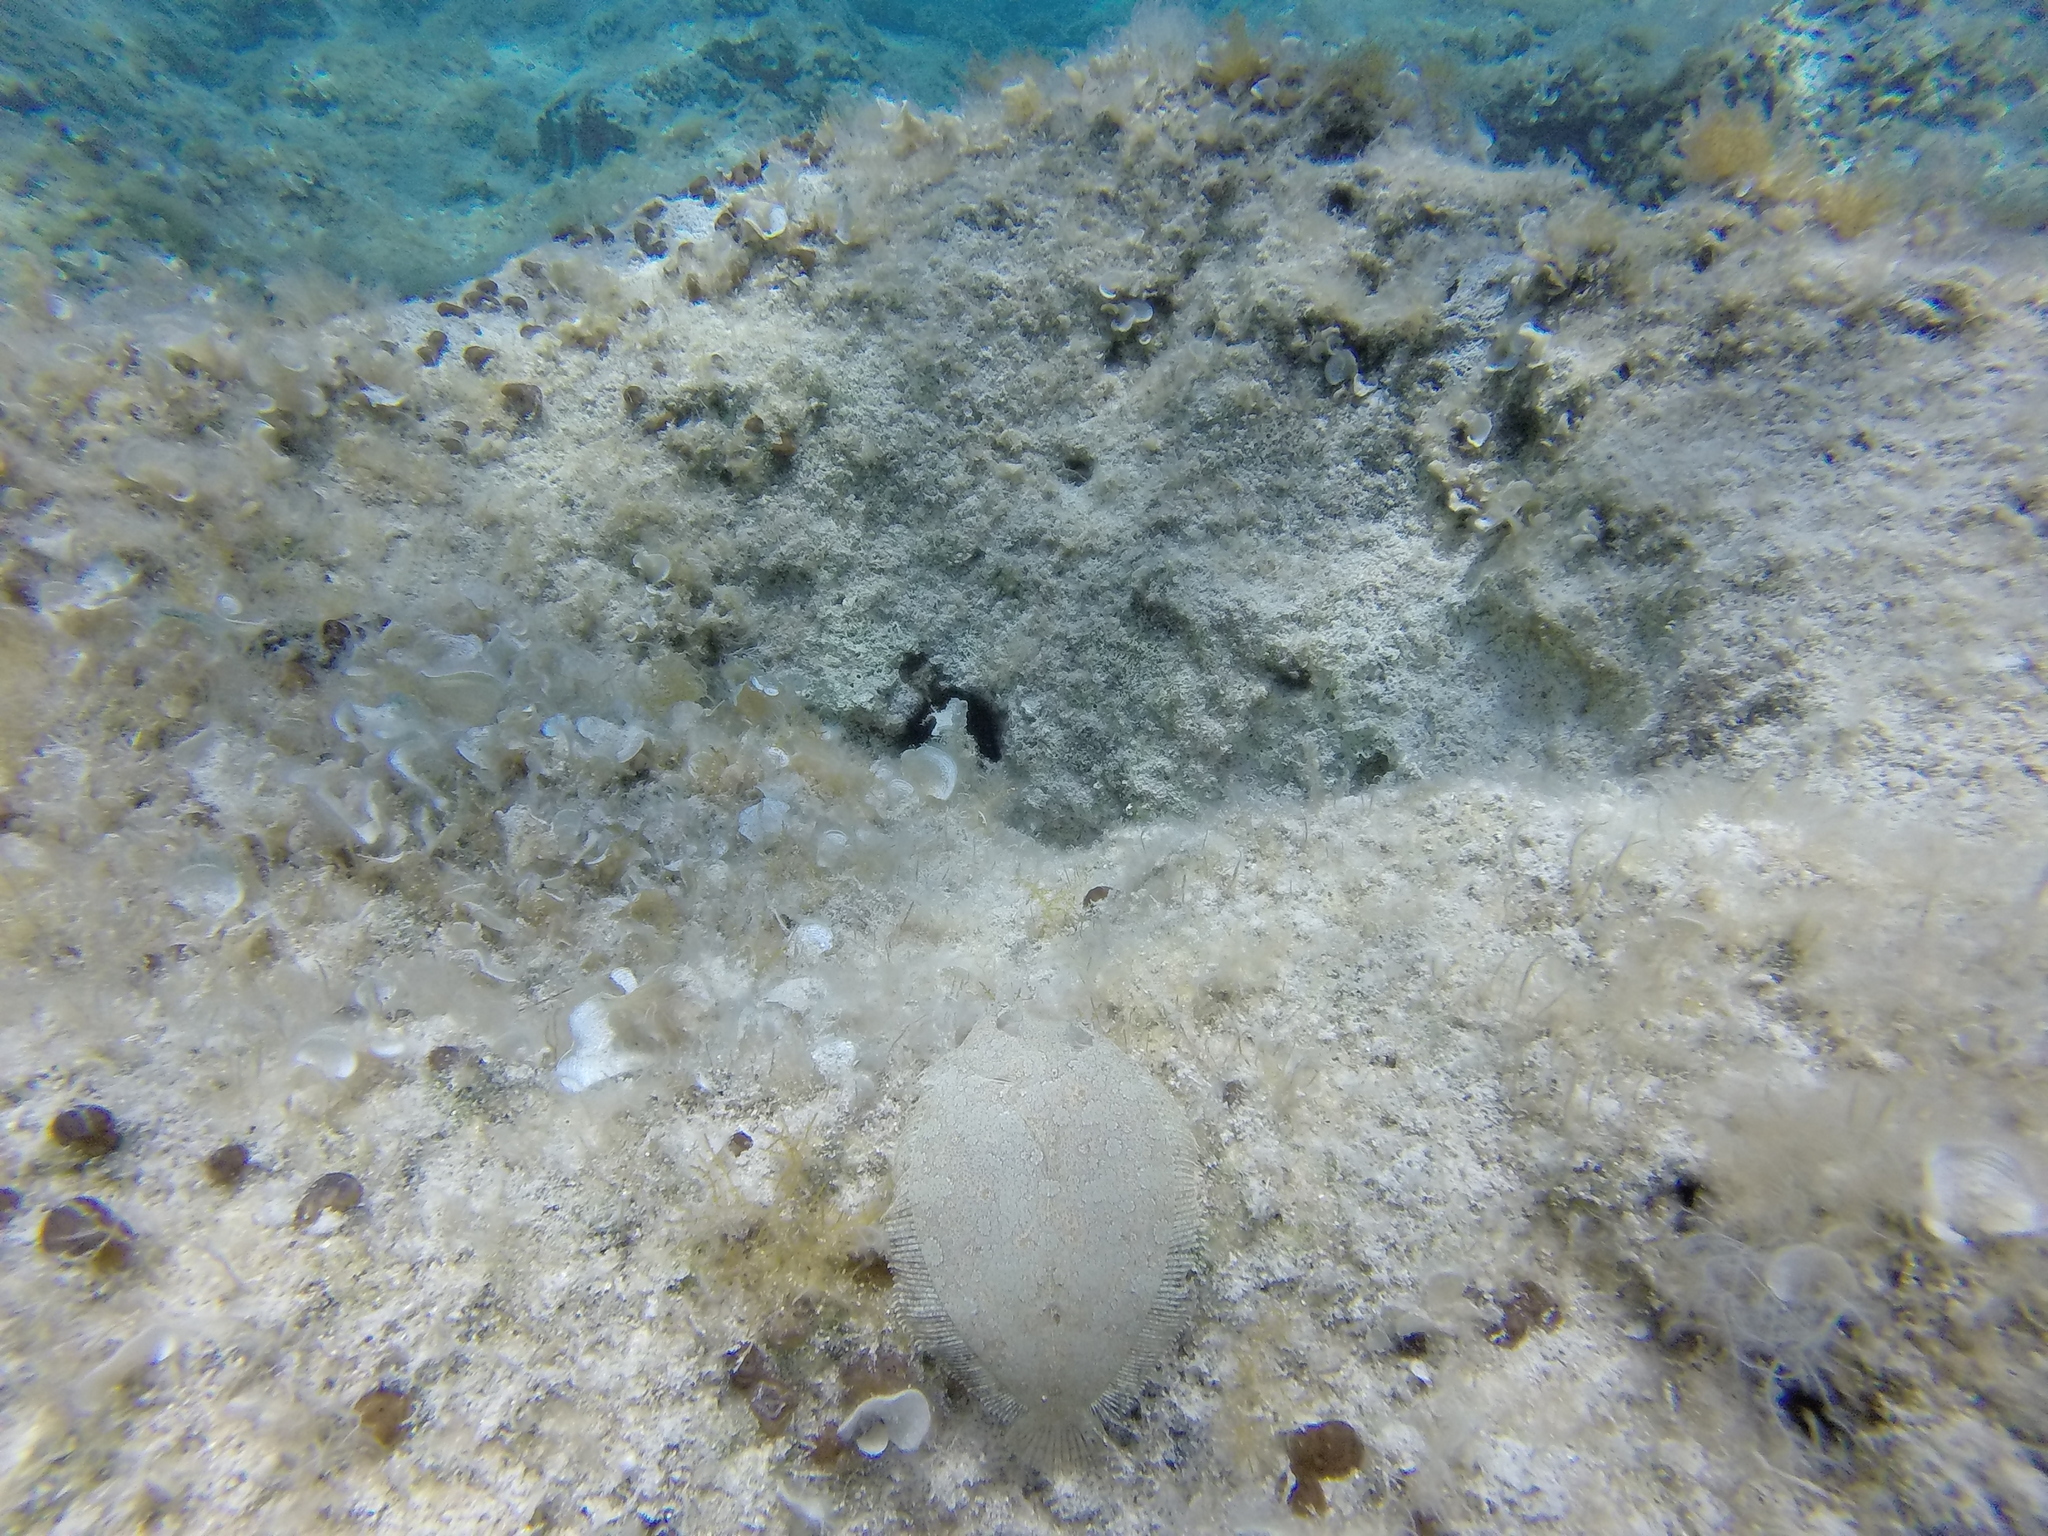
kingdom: Animalia
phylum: Chordata
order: Pleuronectiformes
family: Bothidae
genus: Bothus
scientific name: Bothus podas
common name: Wide-eyed flounder
